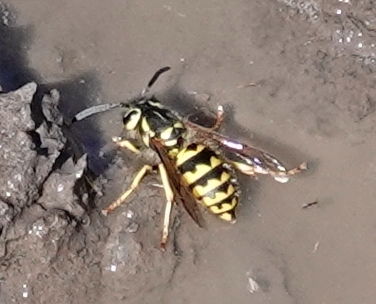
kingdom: Animalia
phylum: Arthropoda
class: Insecta
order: Hymenoptera
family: Vespidae
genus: Vespula
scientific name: Vespula pensylvanica
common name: Western yellowjacket
